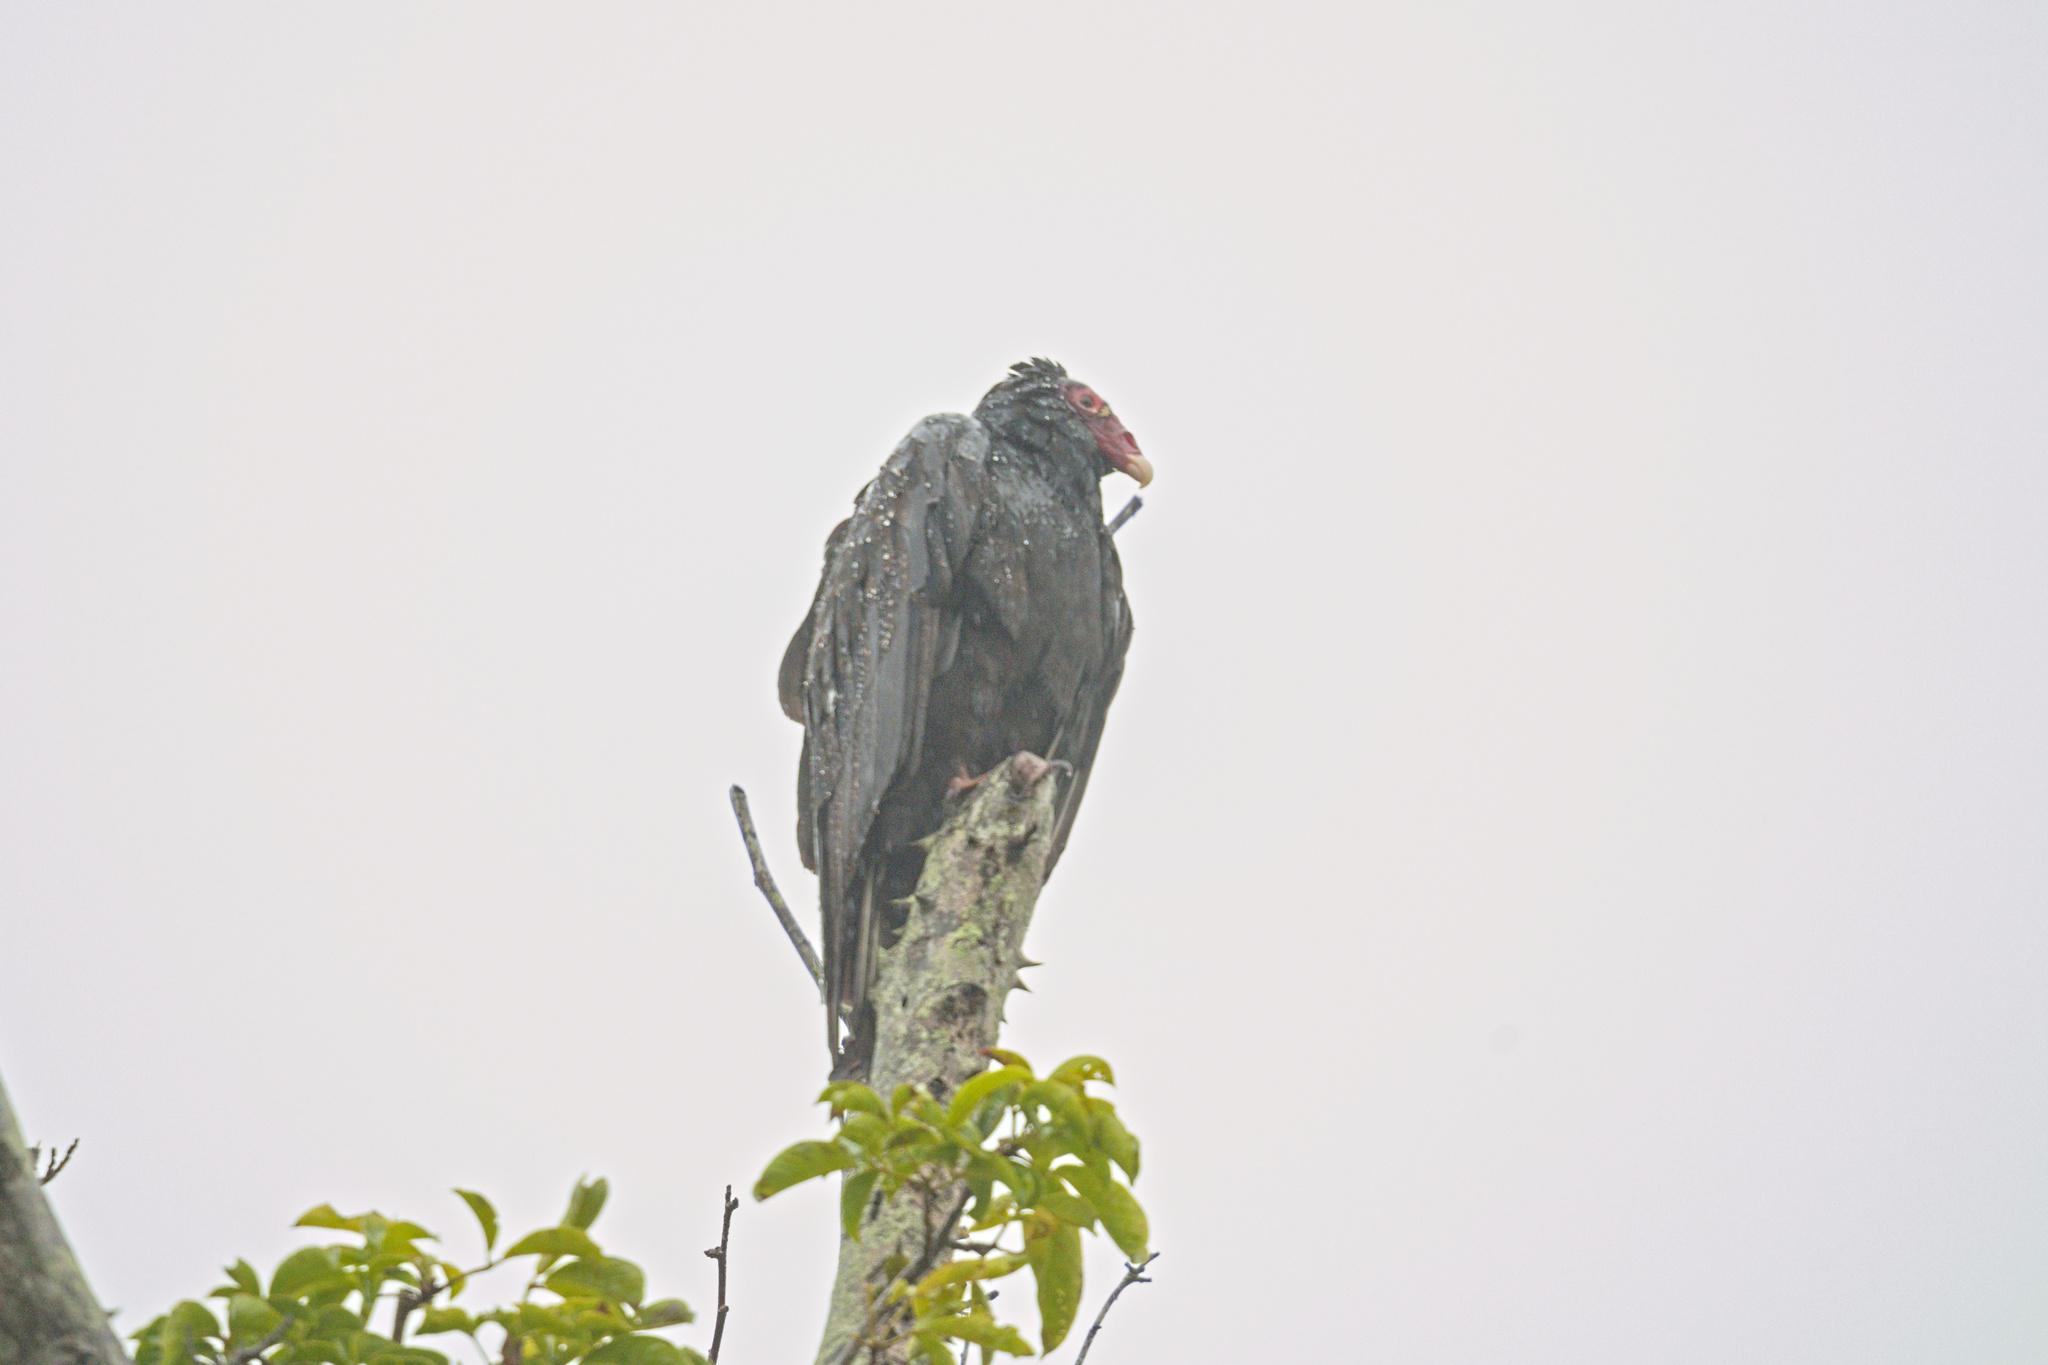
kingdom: Animalia
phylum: Chordata
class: Aves
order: Accipitriformes
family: Cathartidae
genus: Cathartes
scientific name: Cathartes aura
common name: Turkey vulture
